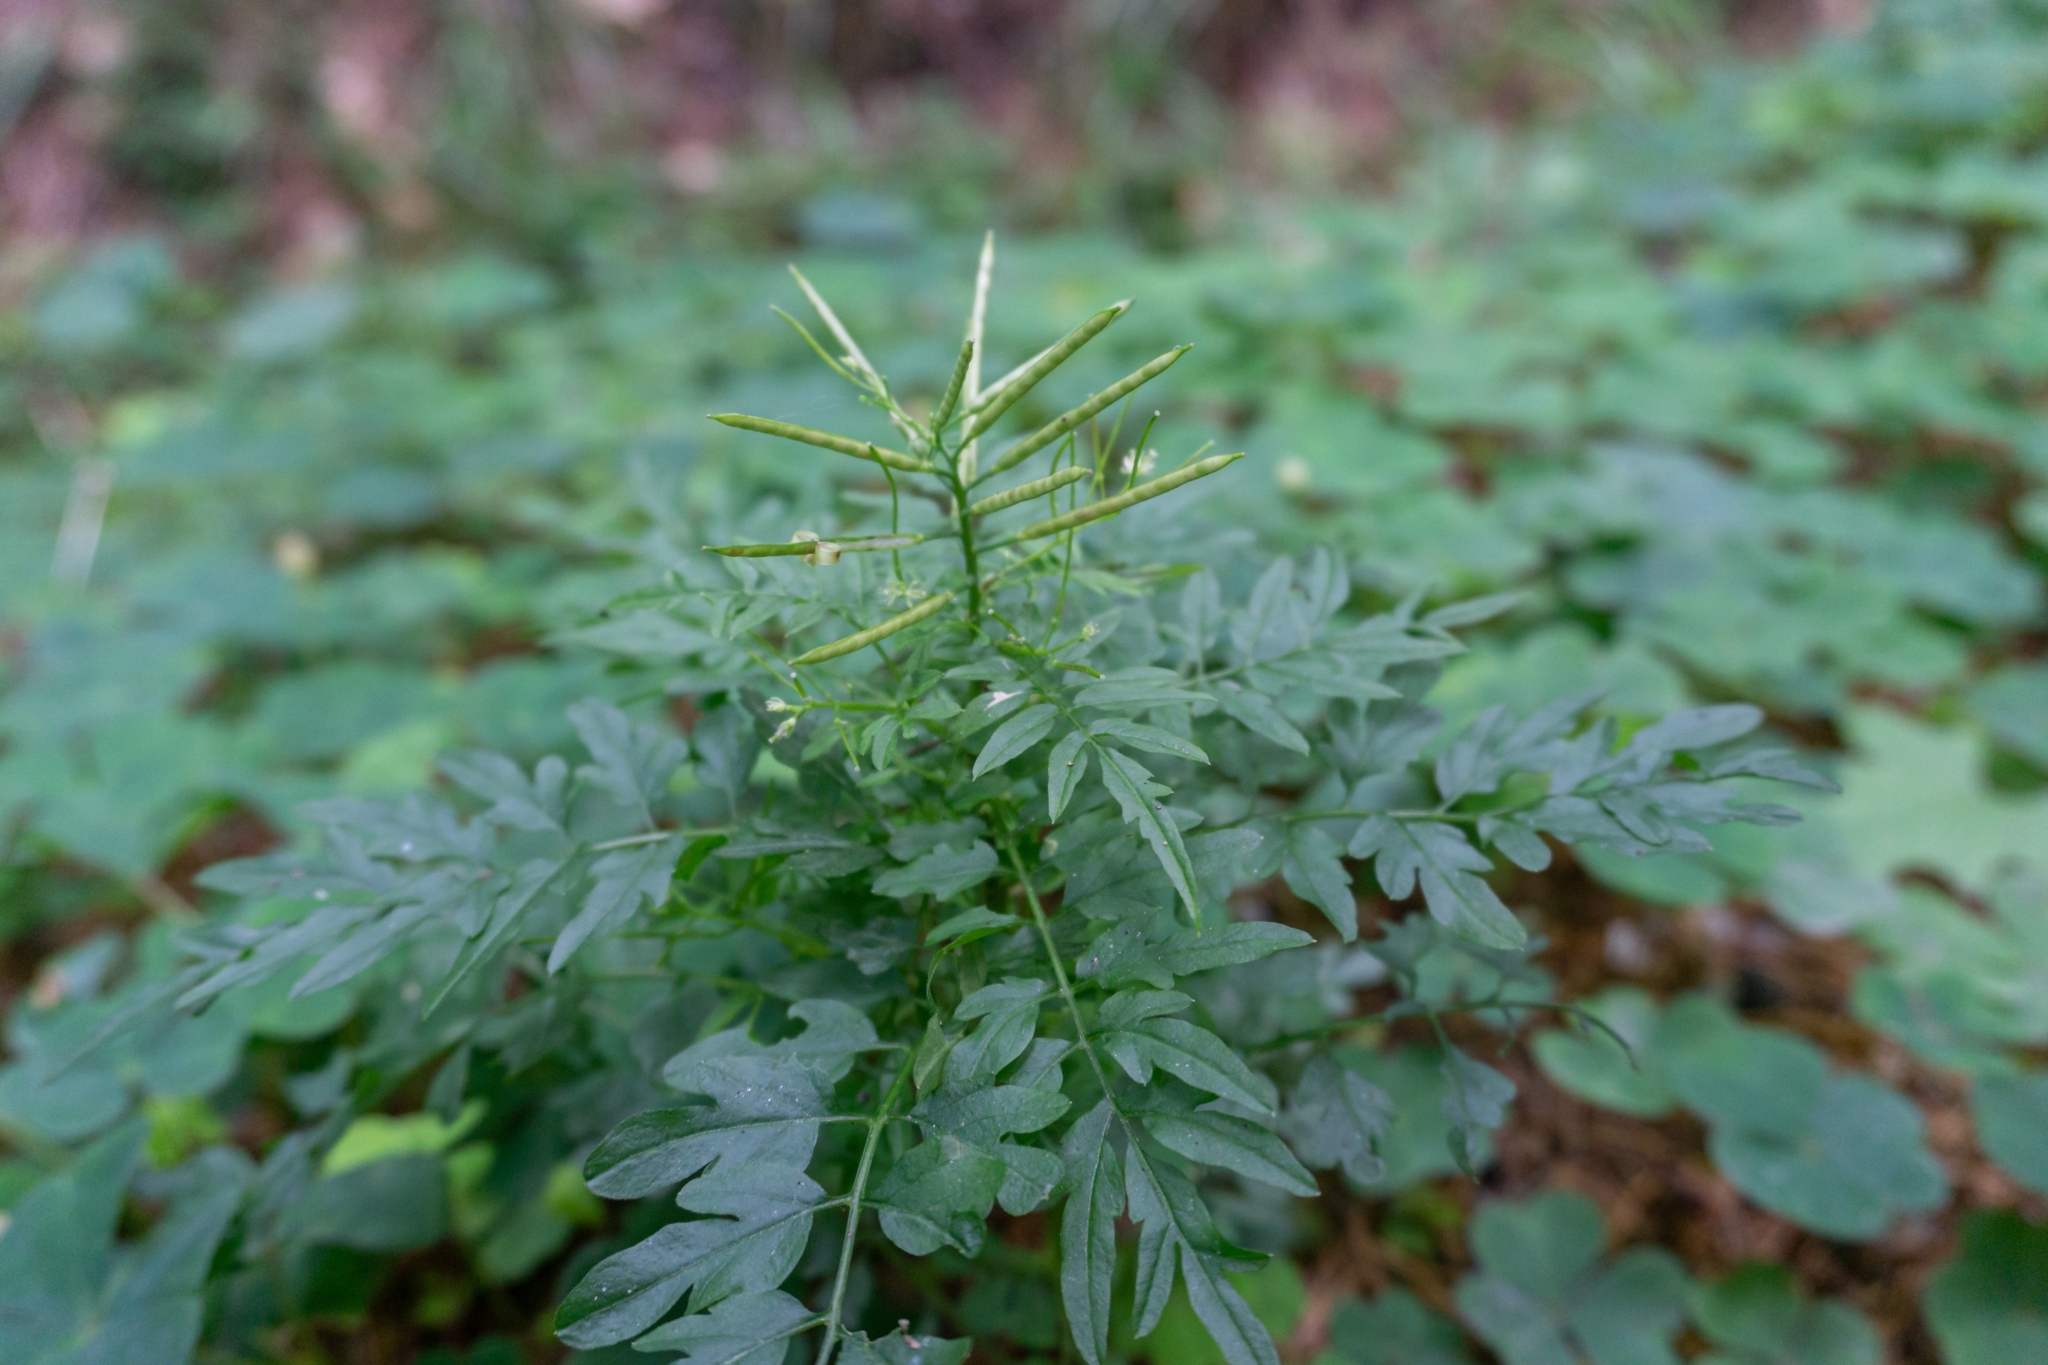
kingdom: Plantae
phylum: Tracheophyta
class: Magnoliopsida
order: Brassicales
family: Brassicaceae
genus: Cardamine
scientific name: Cardamine impatiens
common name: Narrow-leaved bitter-cress
